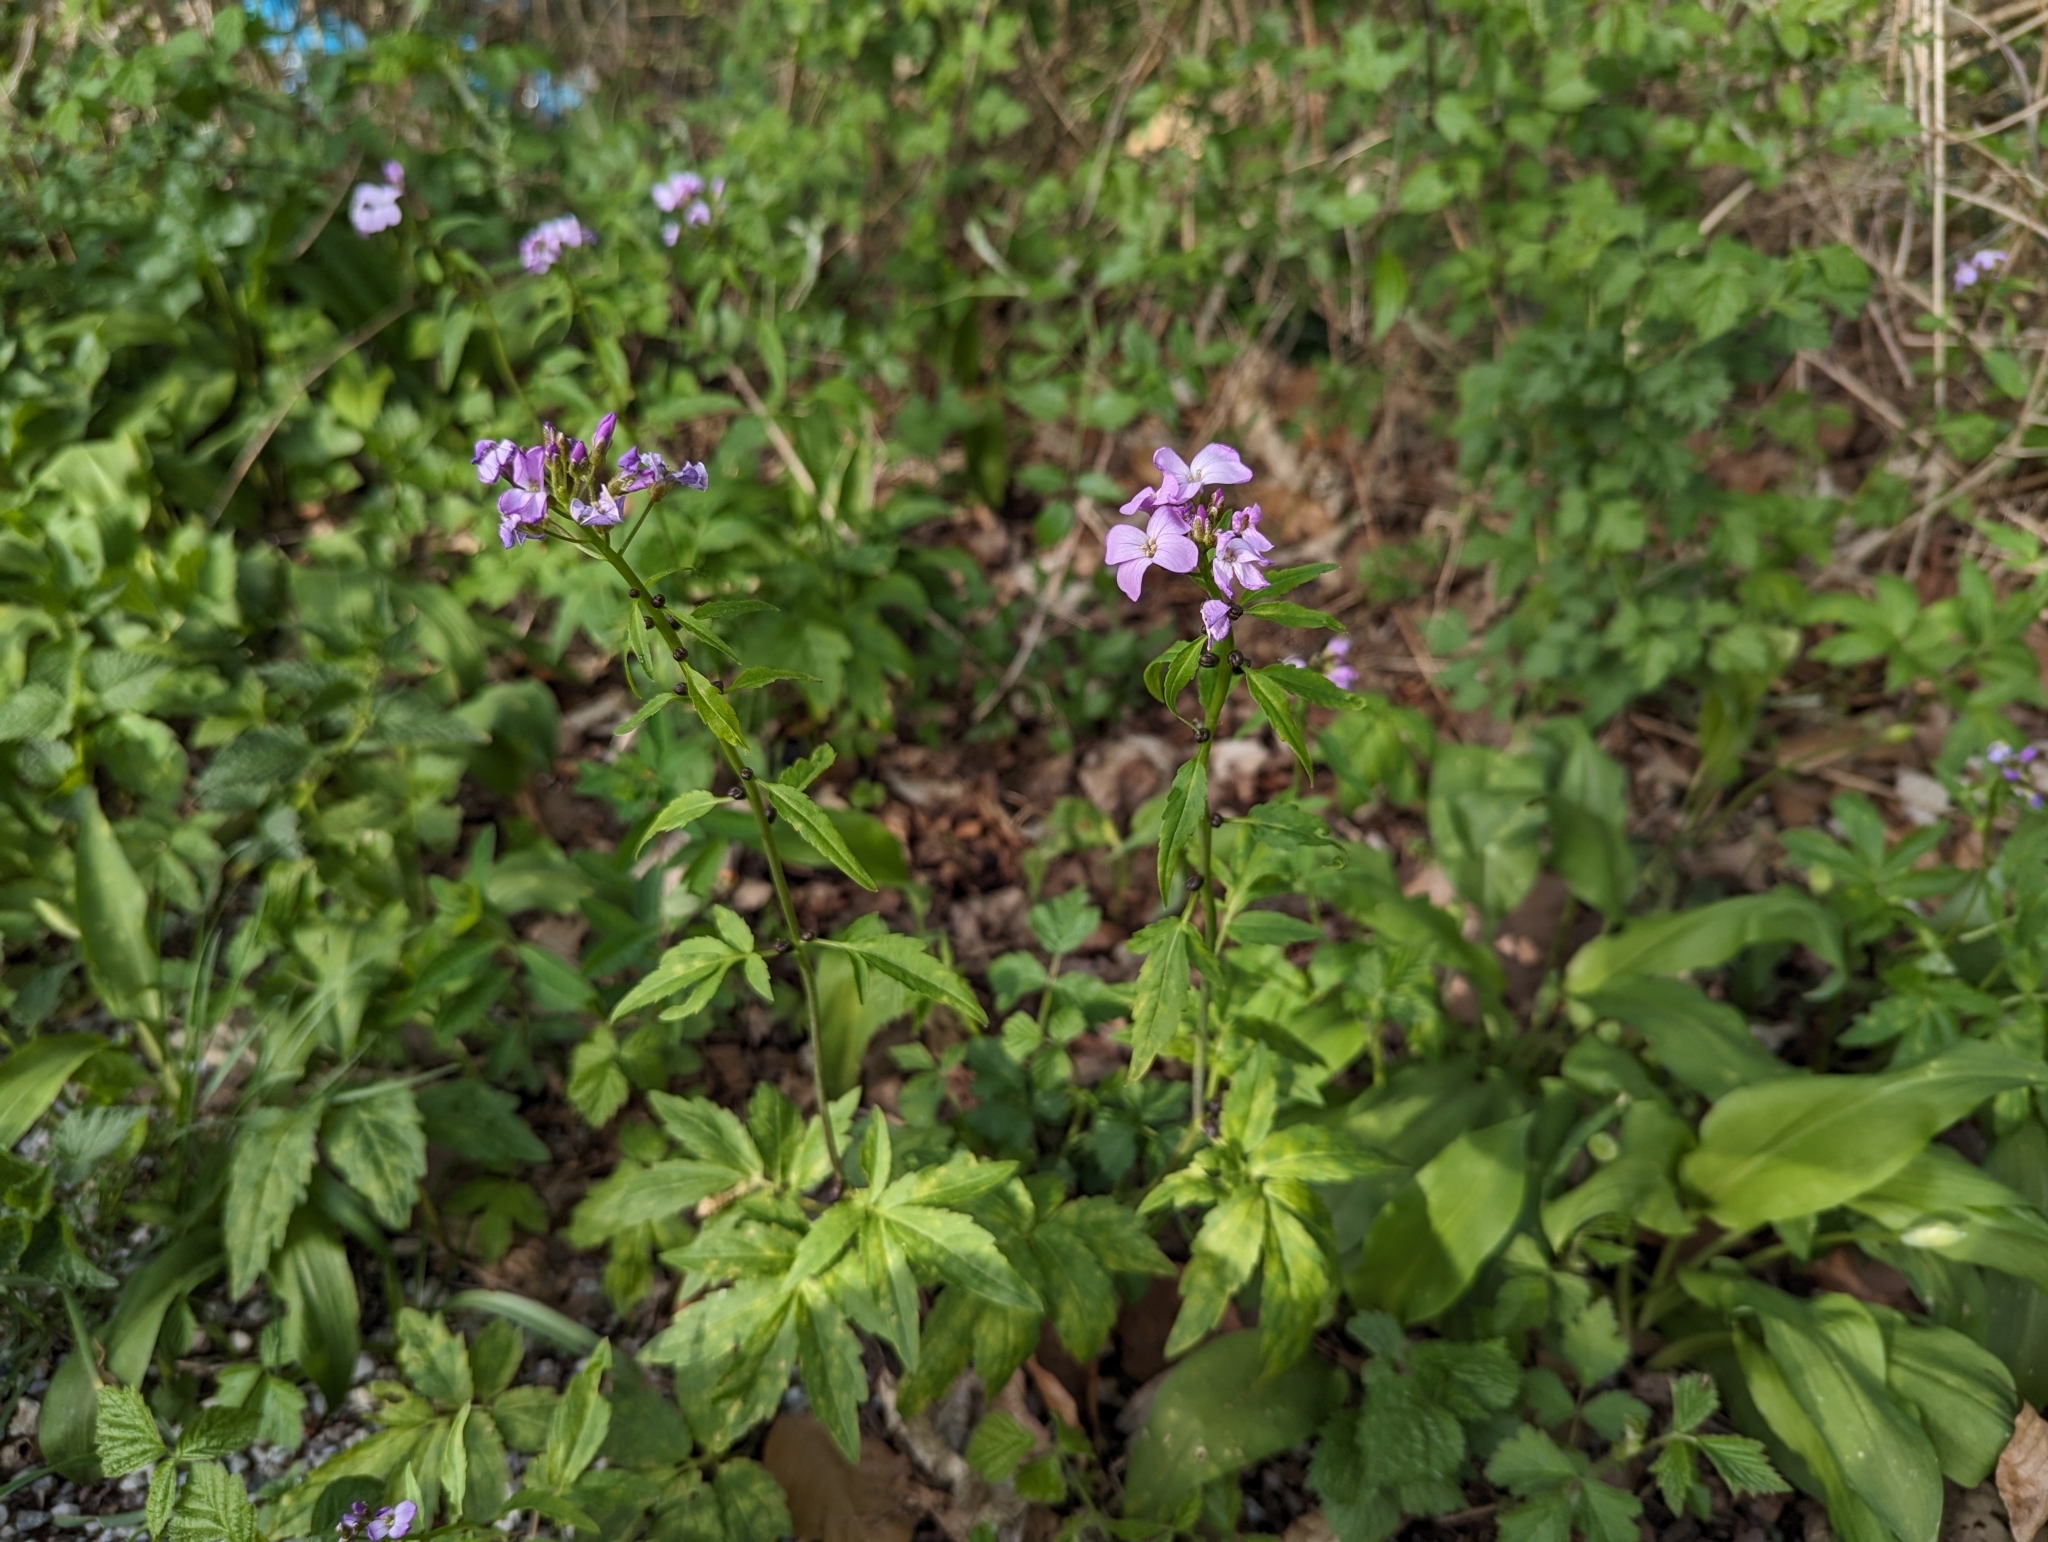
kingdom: Plantae
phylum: Tracheophyta
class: Magnoliopsida
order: Brassicales
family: Brassicaceae
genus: Cardamine
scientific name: Cardamine bulbifera
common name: Coralroot bittercress
